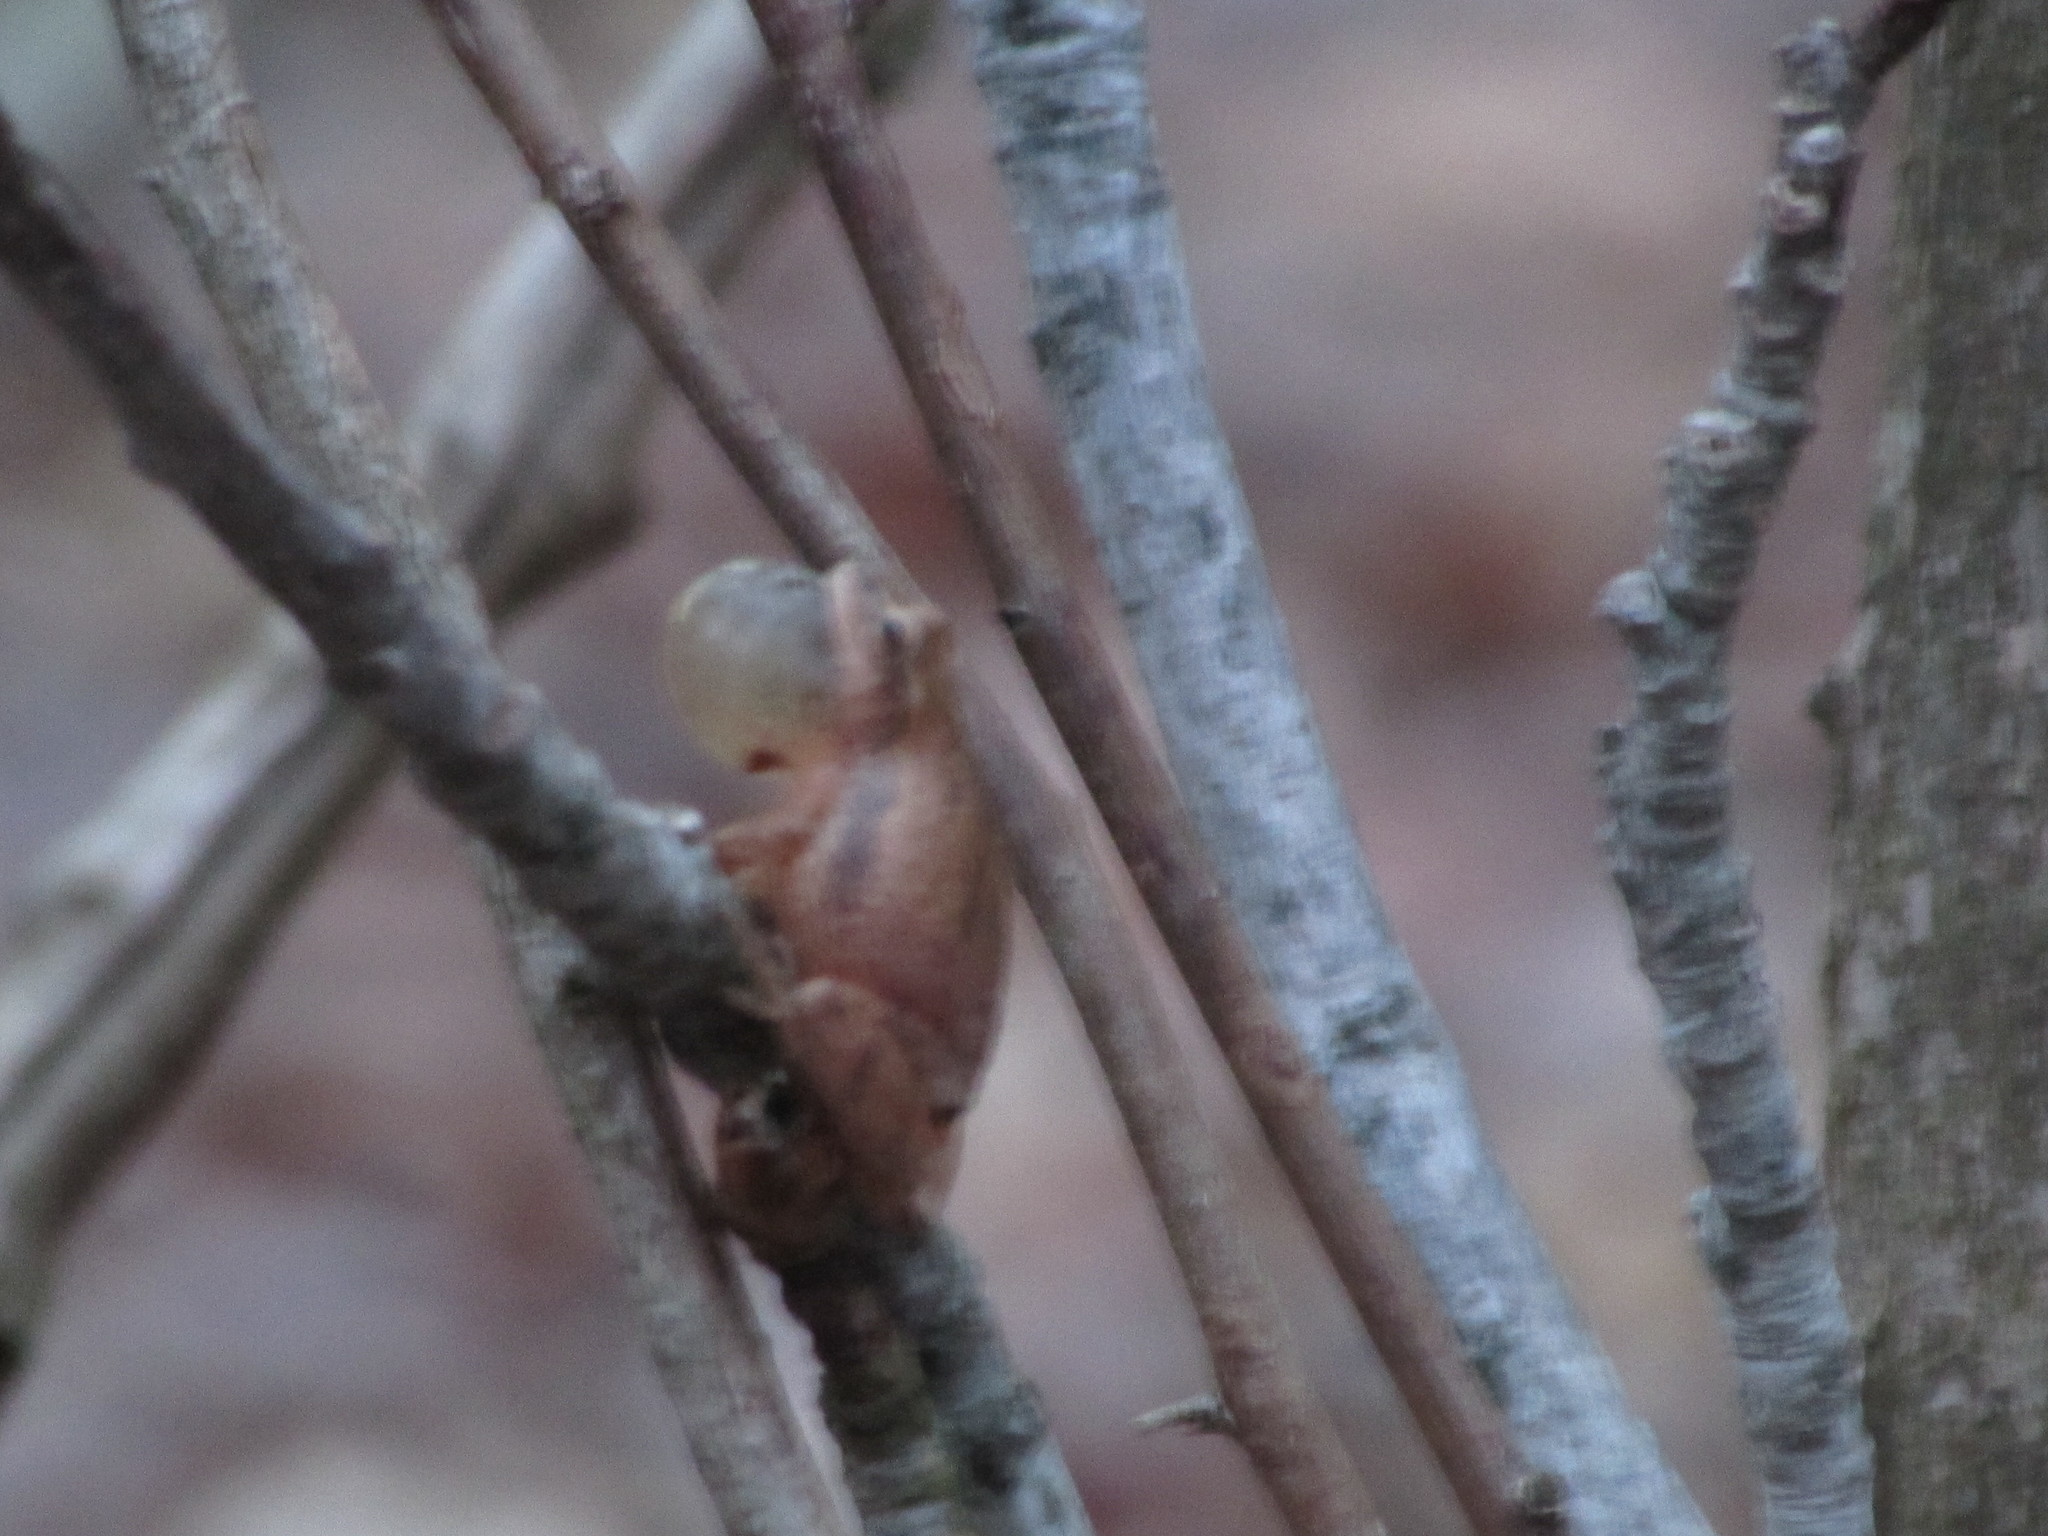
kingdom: Animalia
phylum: Chordata
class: Amphibia
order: Anura
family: Hylidae
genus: Pseudacris
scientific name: Pseudacris crucifer
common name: Spring peeper
